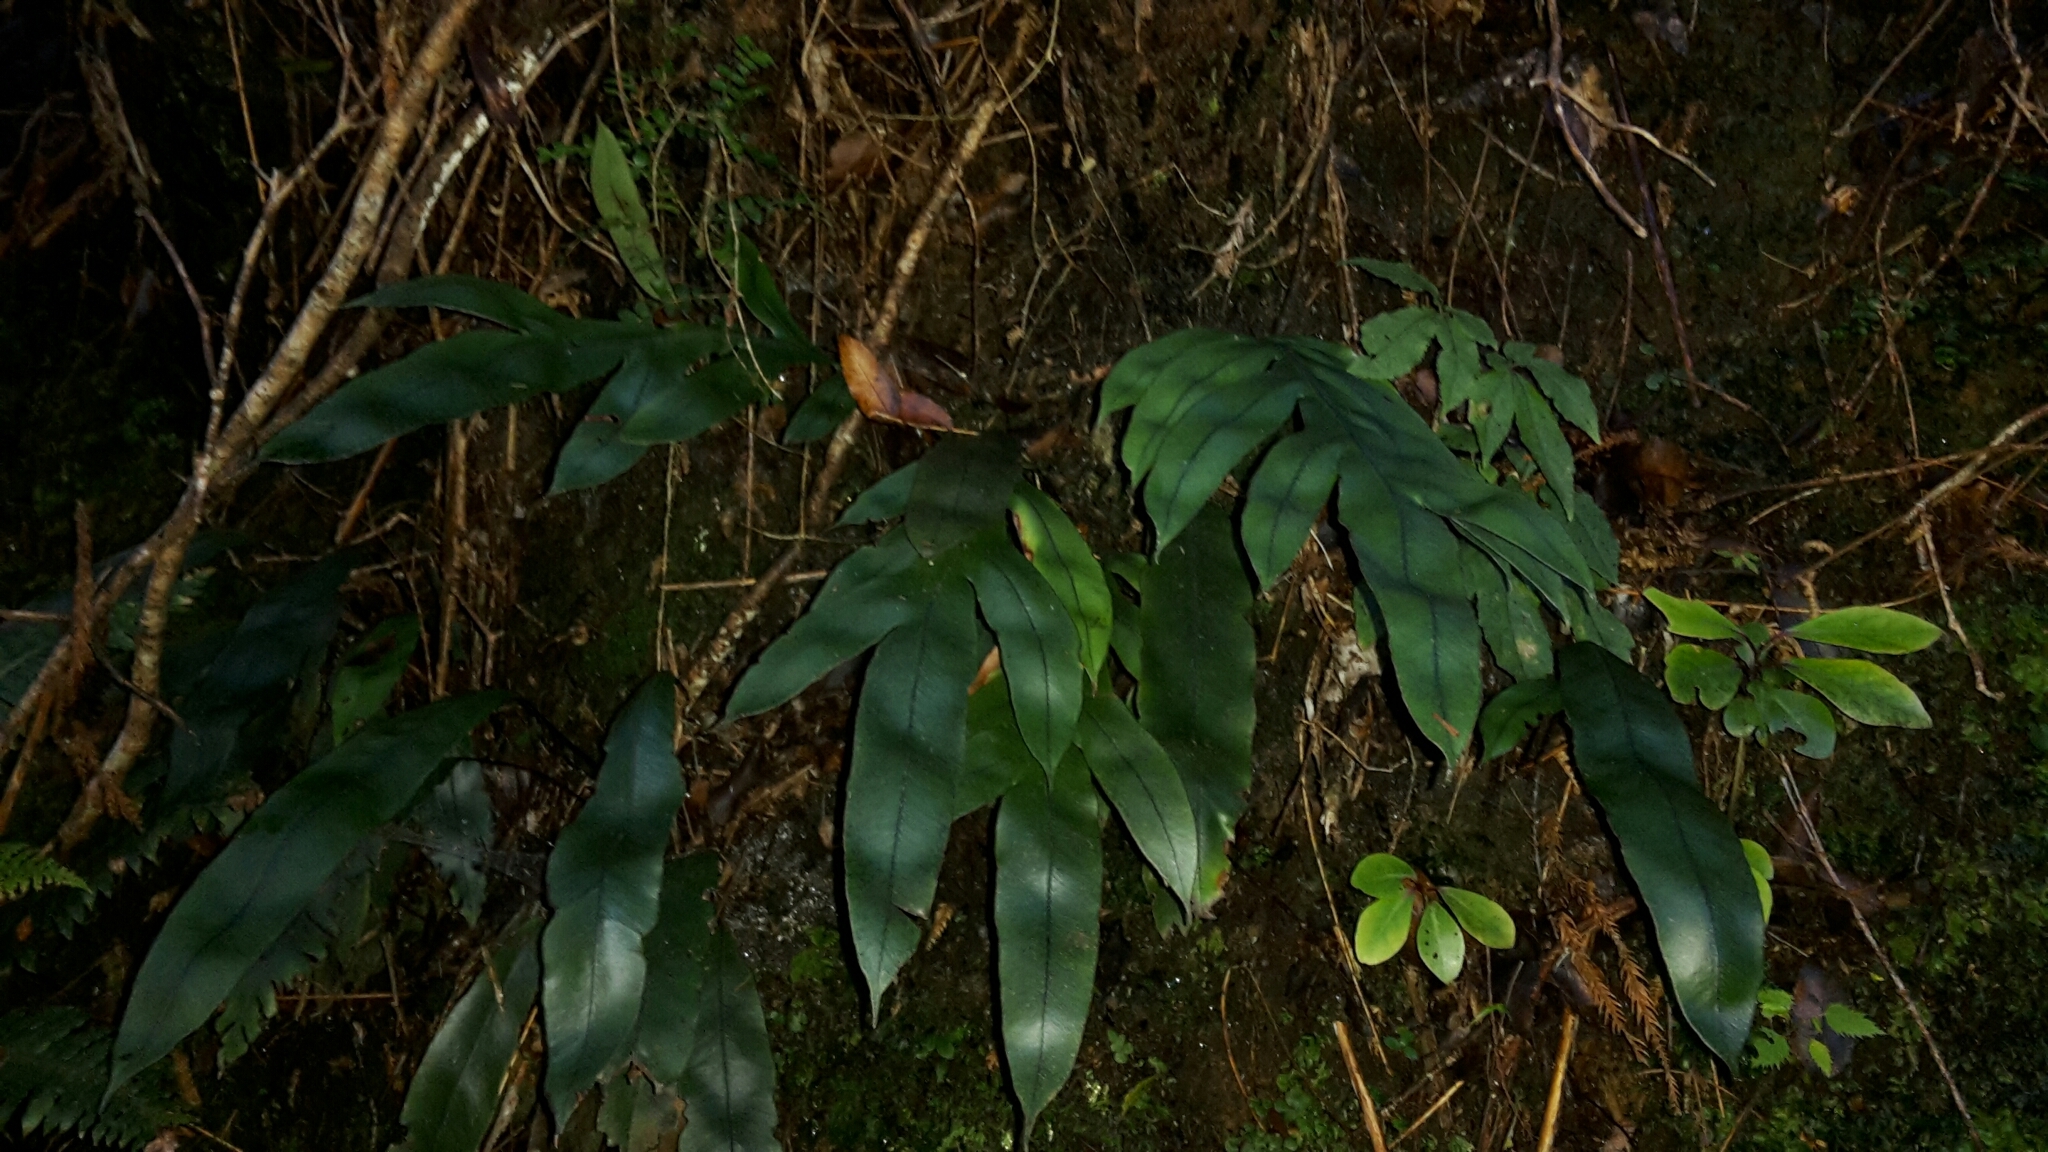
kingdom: Plantae
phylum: Tracheophyta
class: Polypodiopsida
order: Polypodiales
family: Blechnaceae
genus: Austroblechnum
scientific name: Austroblechnum colensoi
